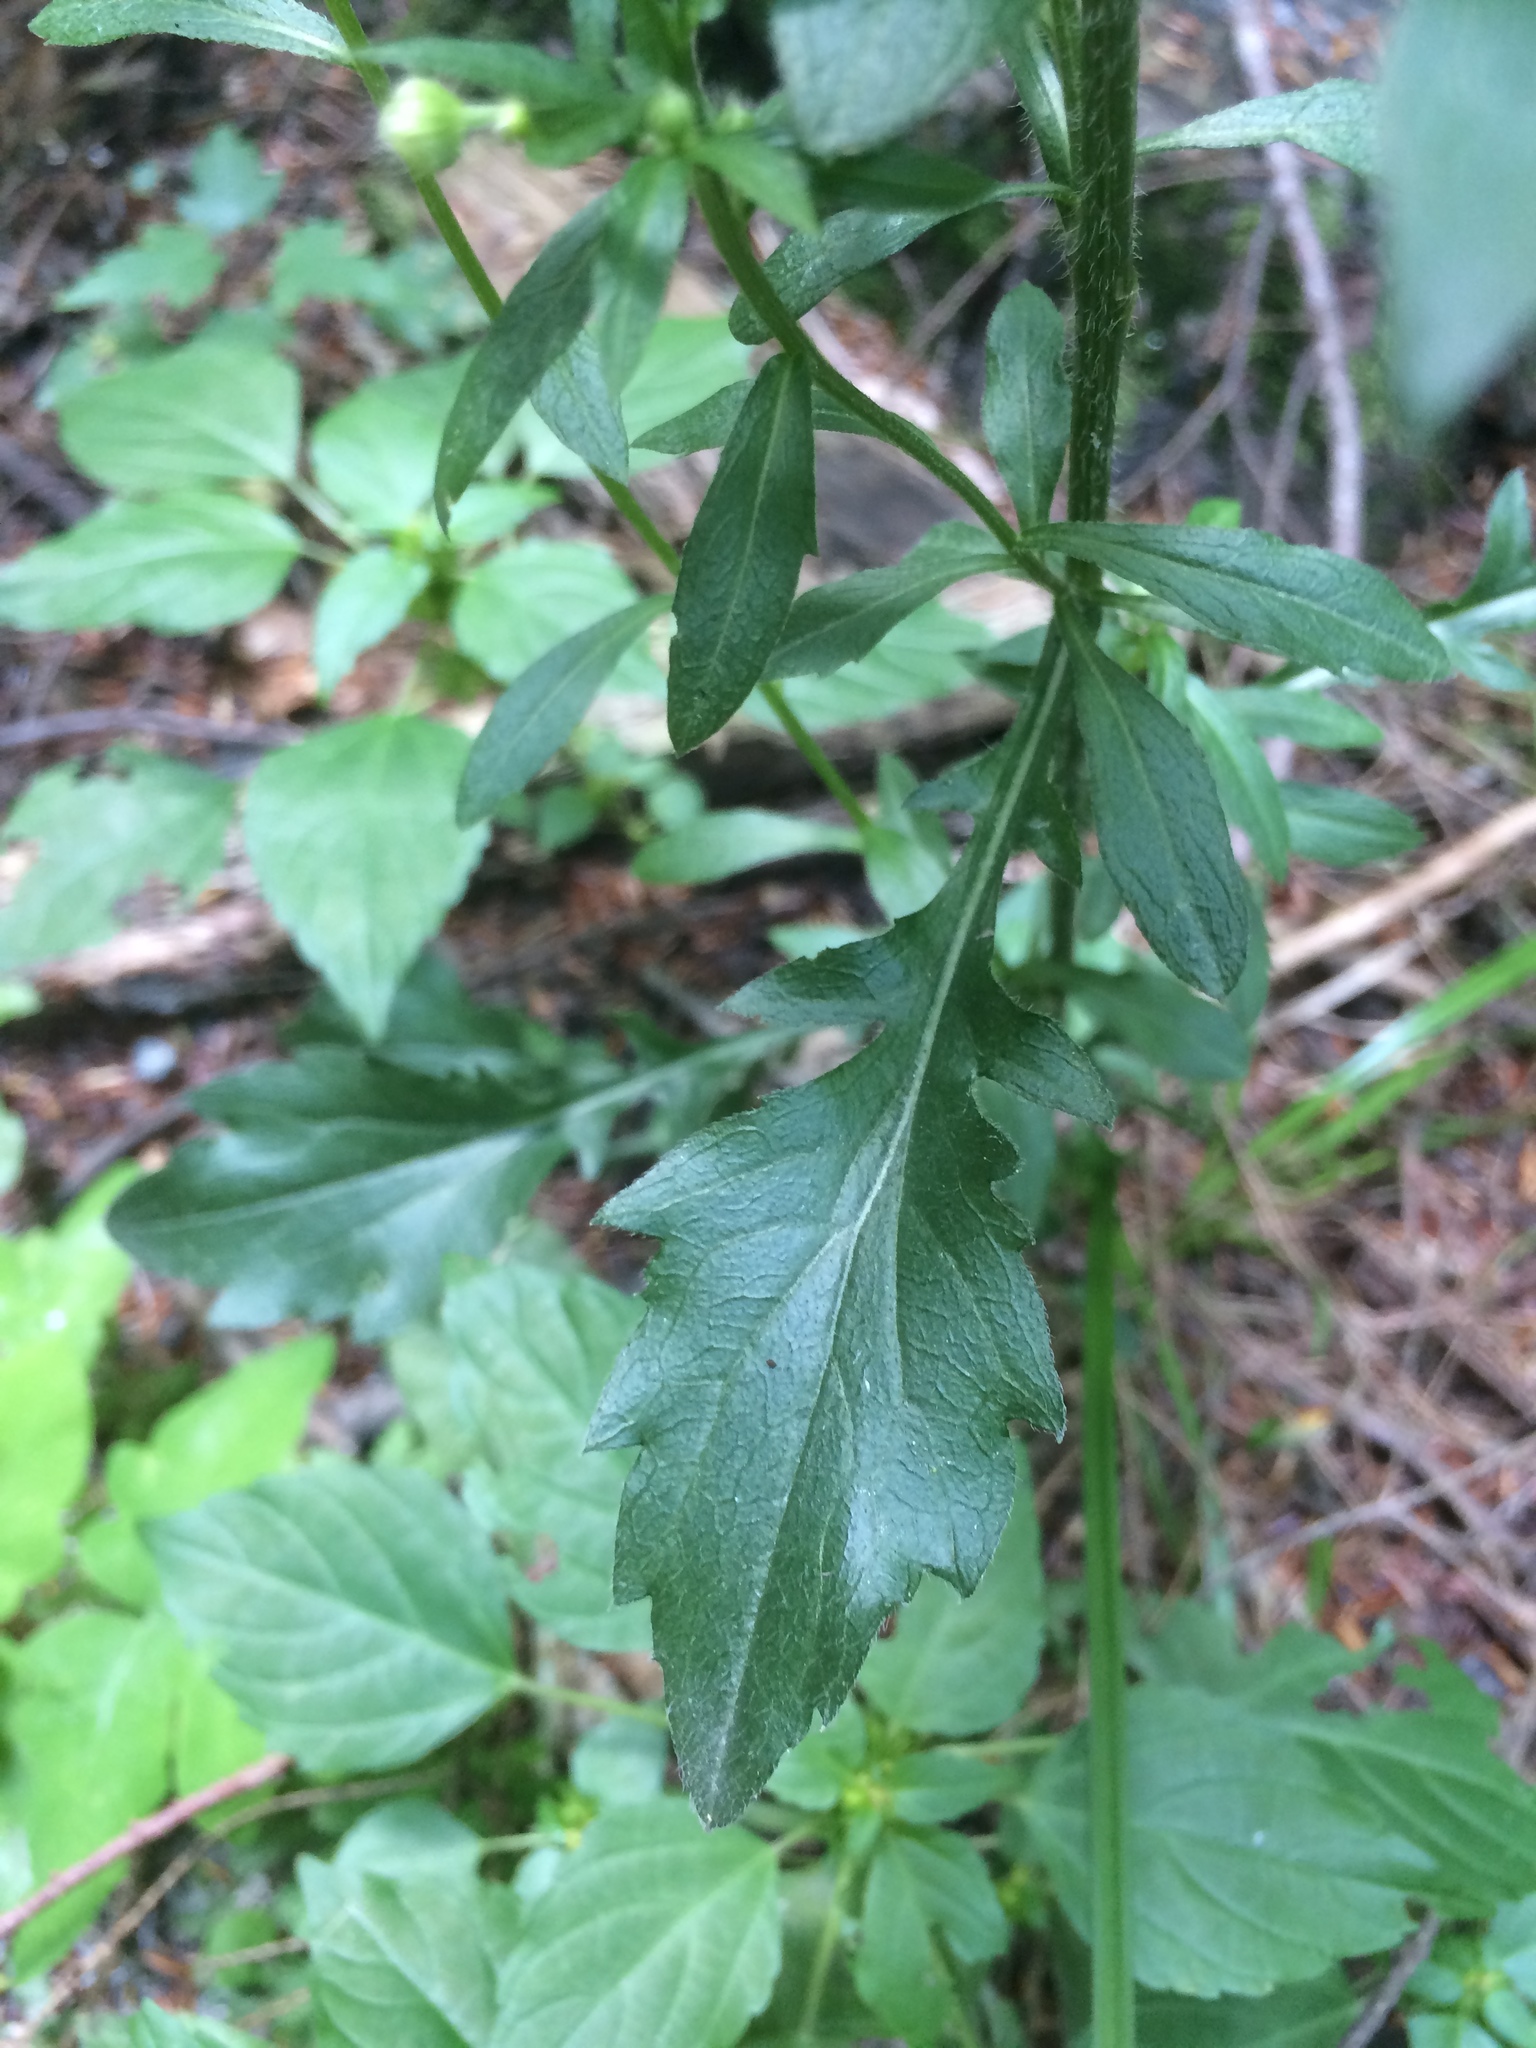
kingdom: Plantae
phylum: Tracheophyta
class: Magnoliopsida
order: Asterales
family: Asteraceae
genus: Erigeron
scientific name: Erigeron annuus
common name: Tall fleabane
